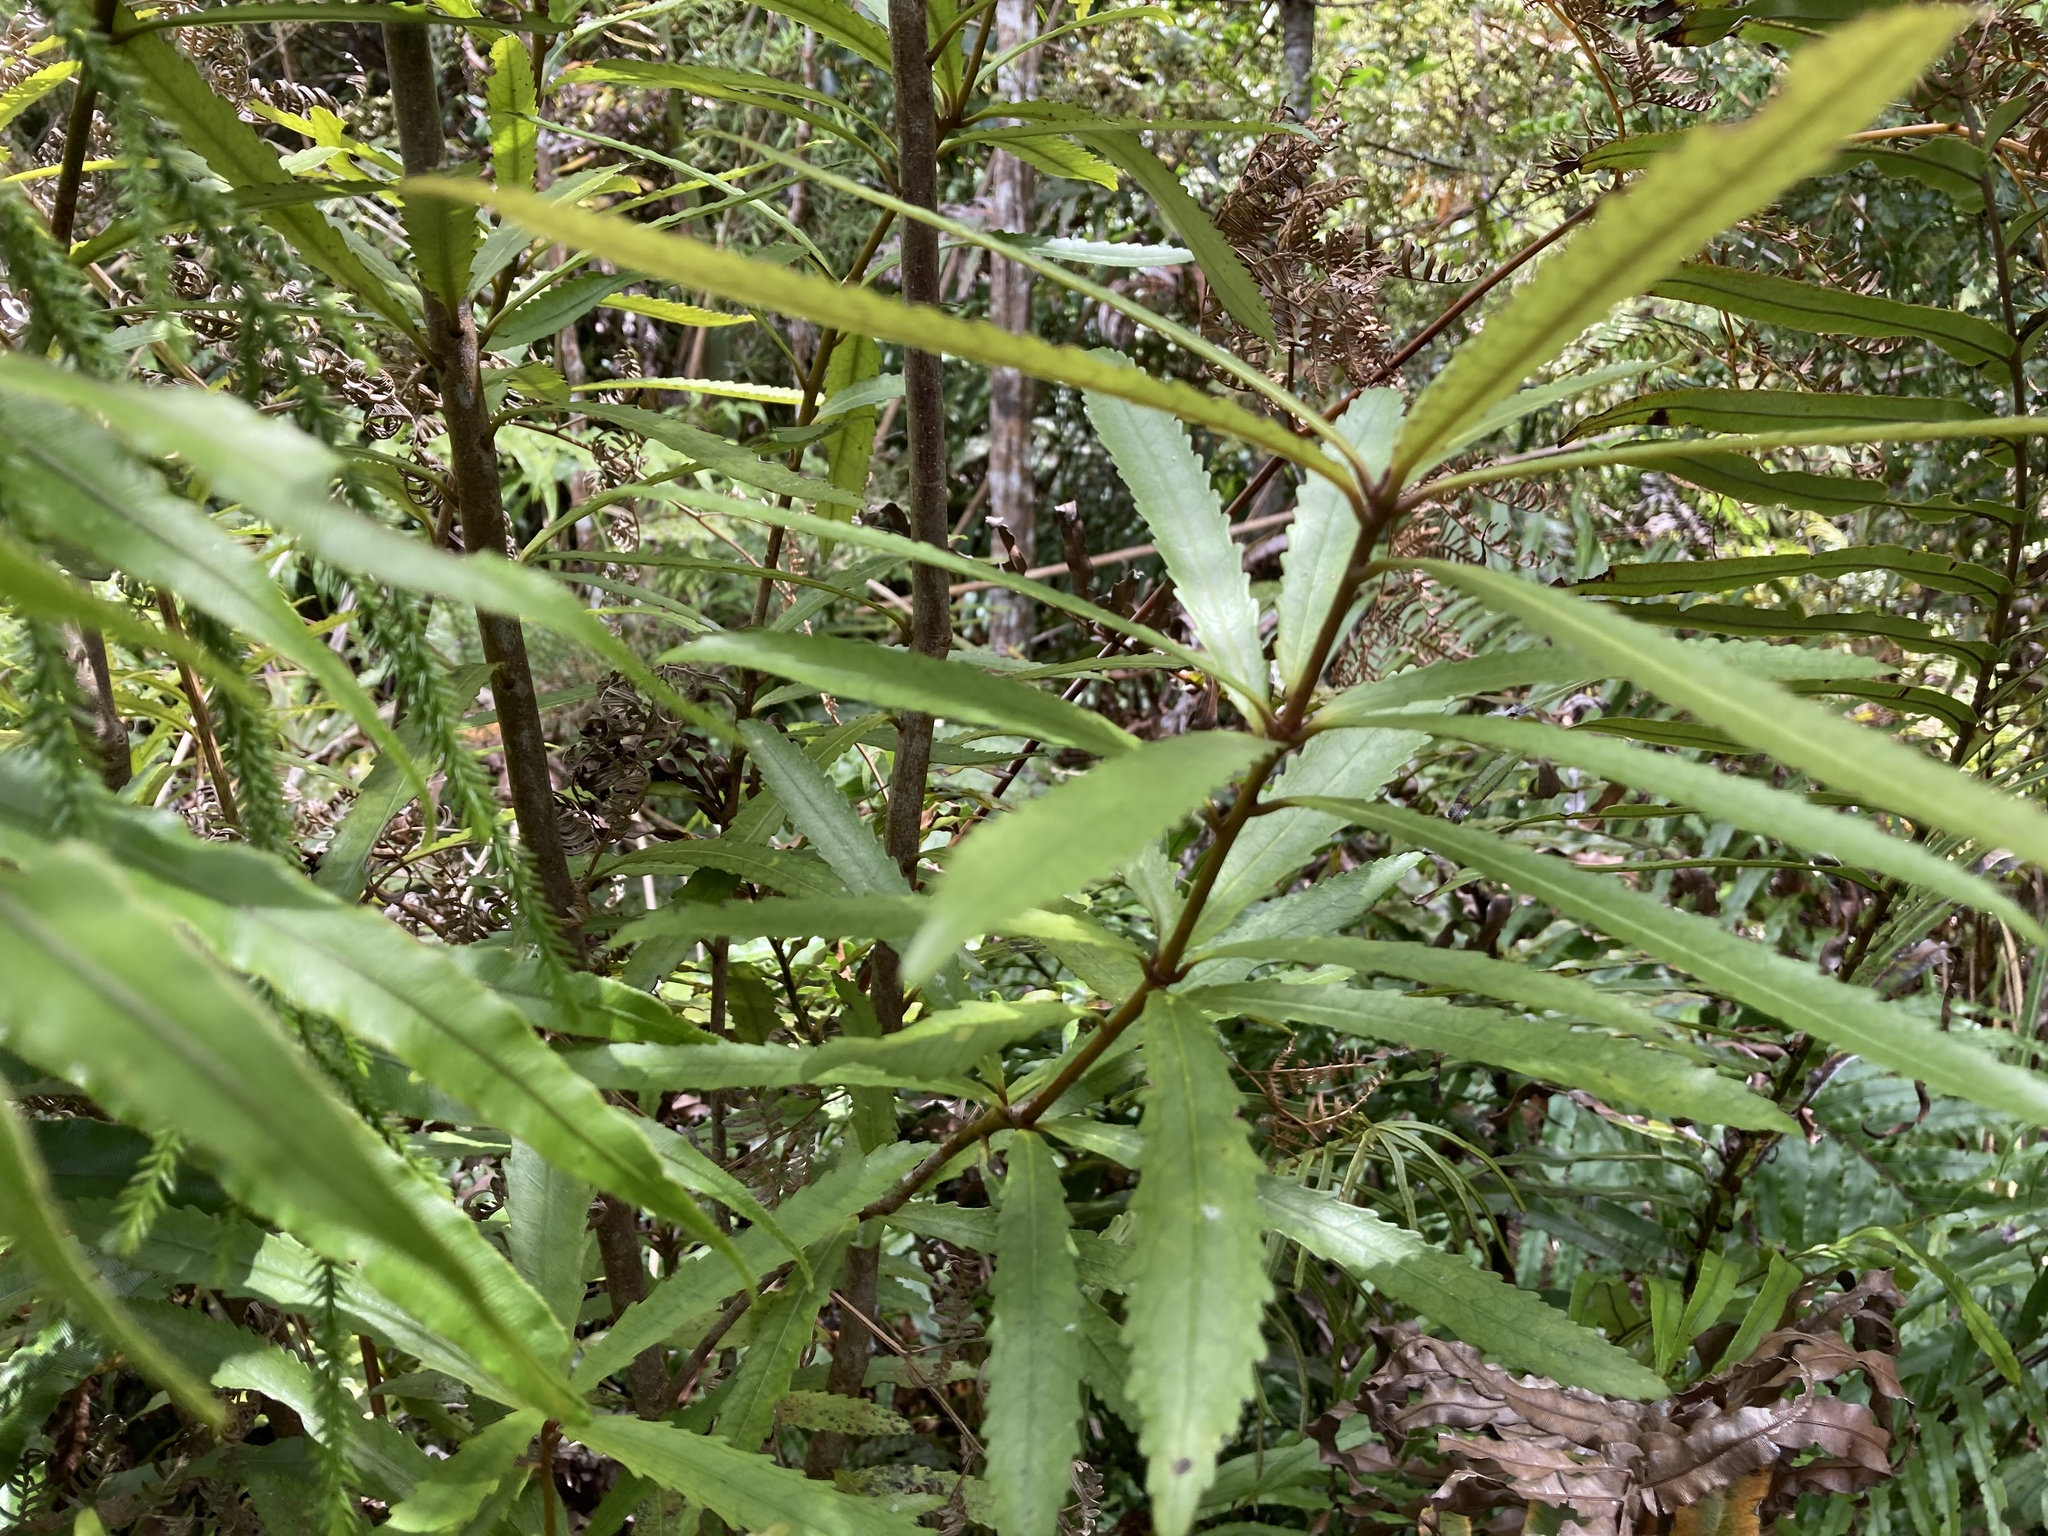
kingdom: Plantae
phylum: Tracheophyta
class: Magnoliopsida
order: Crossosomatales
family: Ixerbaceae
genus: Ixerba
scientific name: Ixerba brexioides
